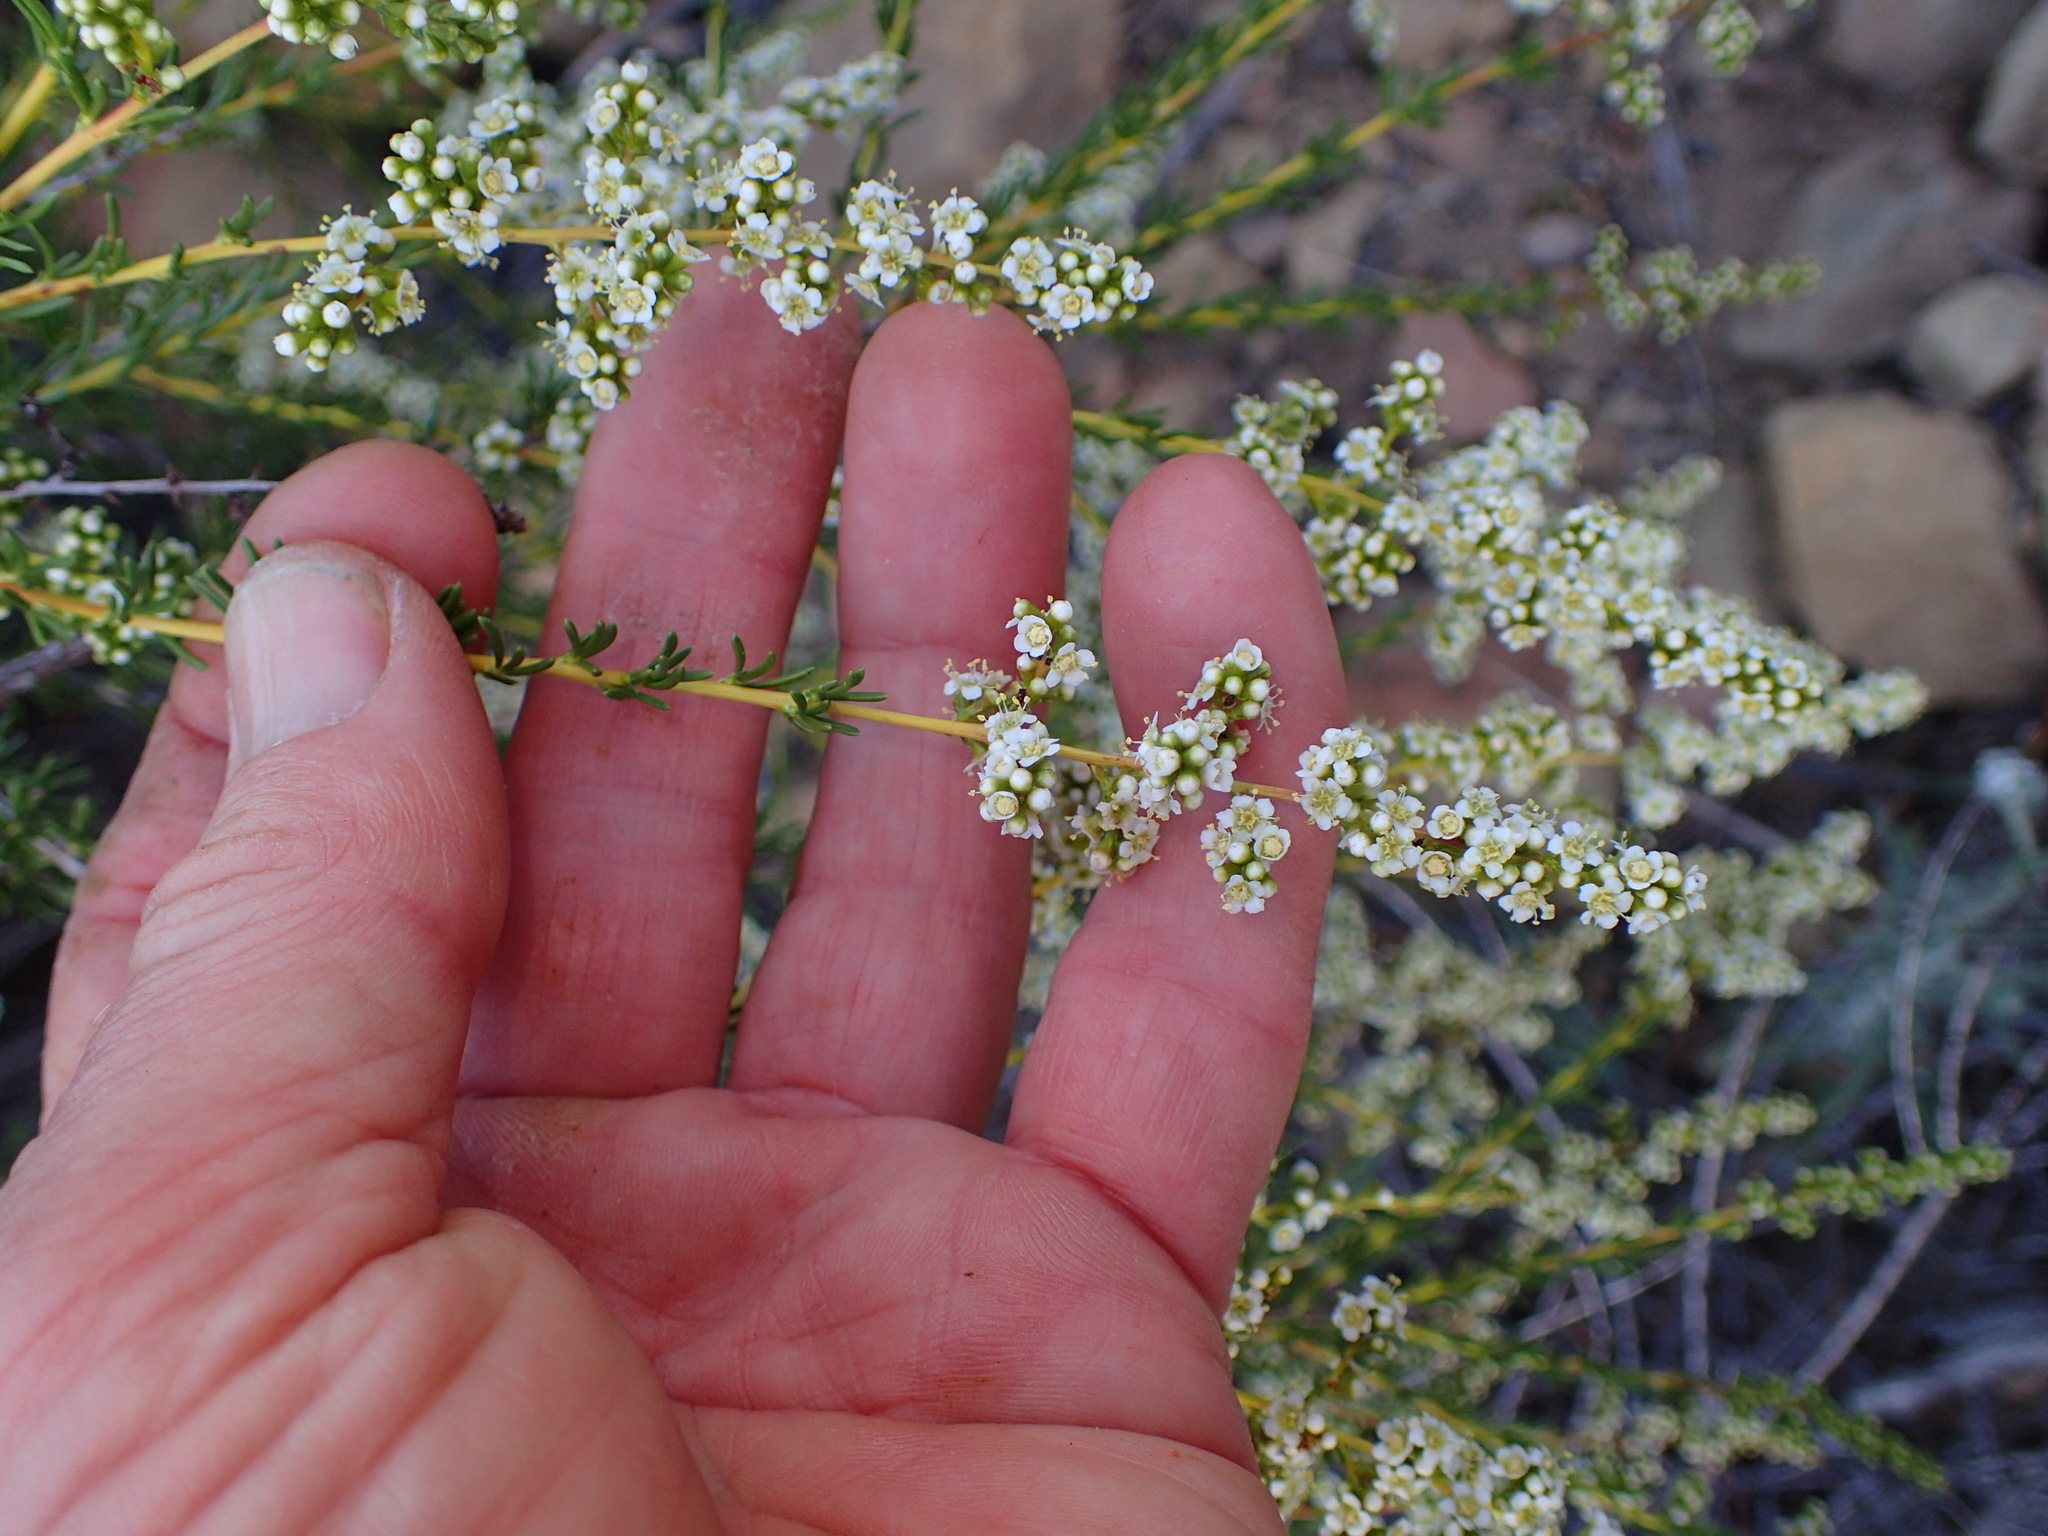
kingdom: Plantae
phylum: Tracheophyta
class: Magnoliopsida
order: Rosales
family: Rosaceae
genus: Adenostoma
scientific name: Adenostoma fasciculatum
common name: Chamise
